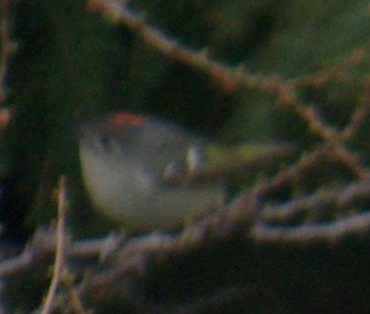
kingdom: Animalia
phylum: Chordata
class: Aves
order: Passeriformes
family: Regulidae
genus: Regulus
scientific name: Regulus calendula
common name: Ruby-crowned kinglet
